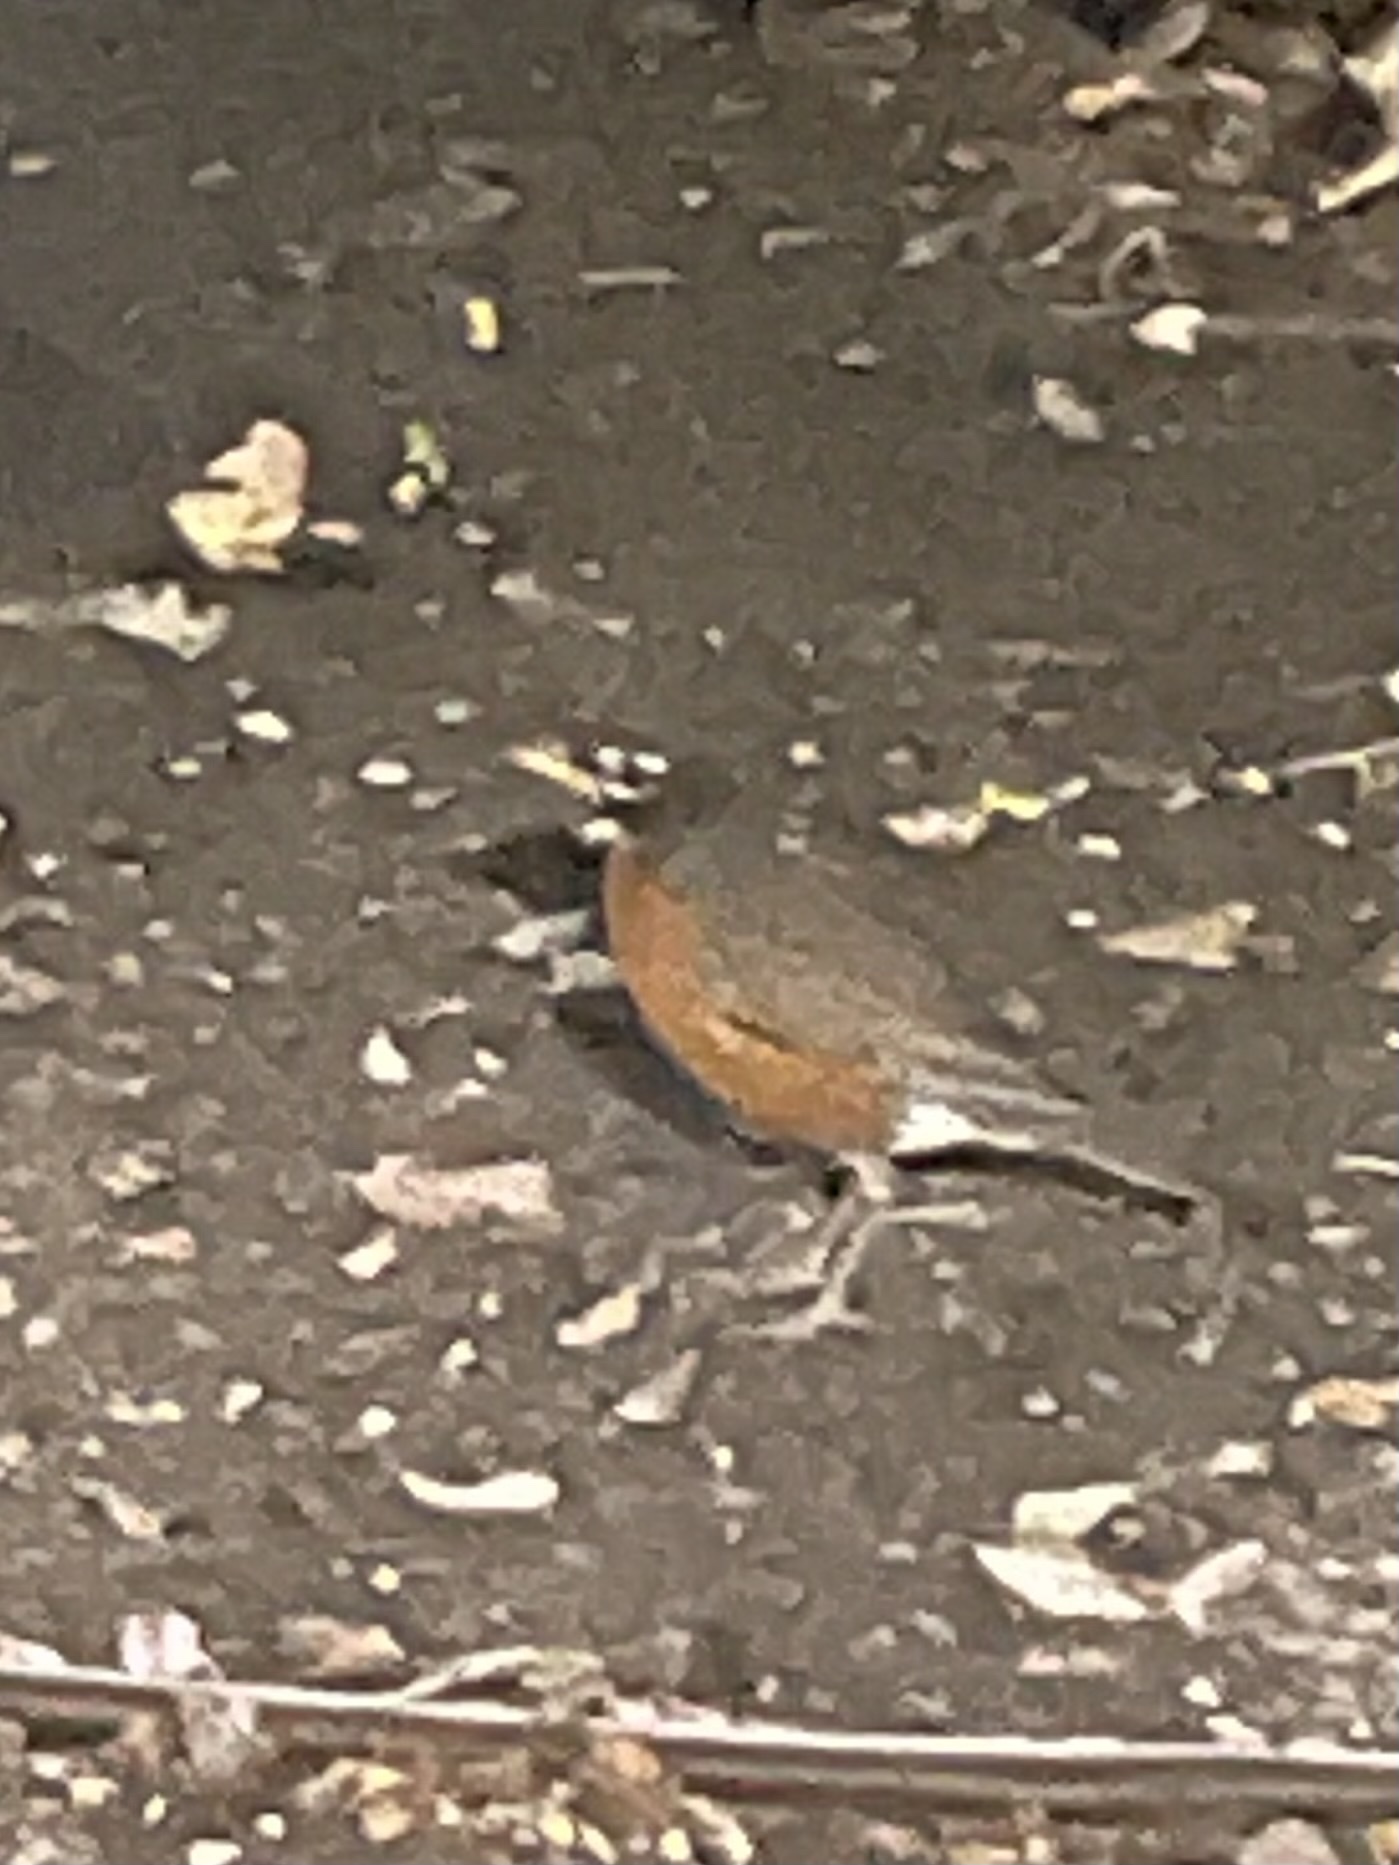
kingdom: Animalia
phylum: Chordata
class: Aves
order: Passeriformes
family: Turdidae
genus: Turdus
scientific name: Turdus migratorius
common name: American robin
